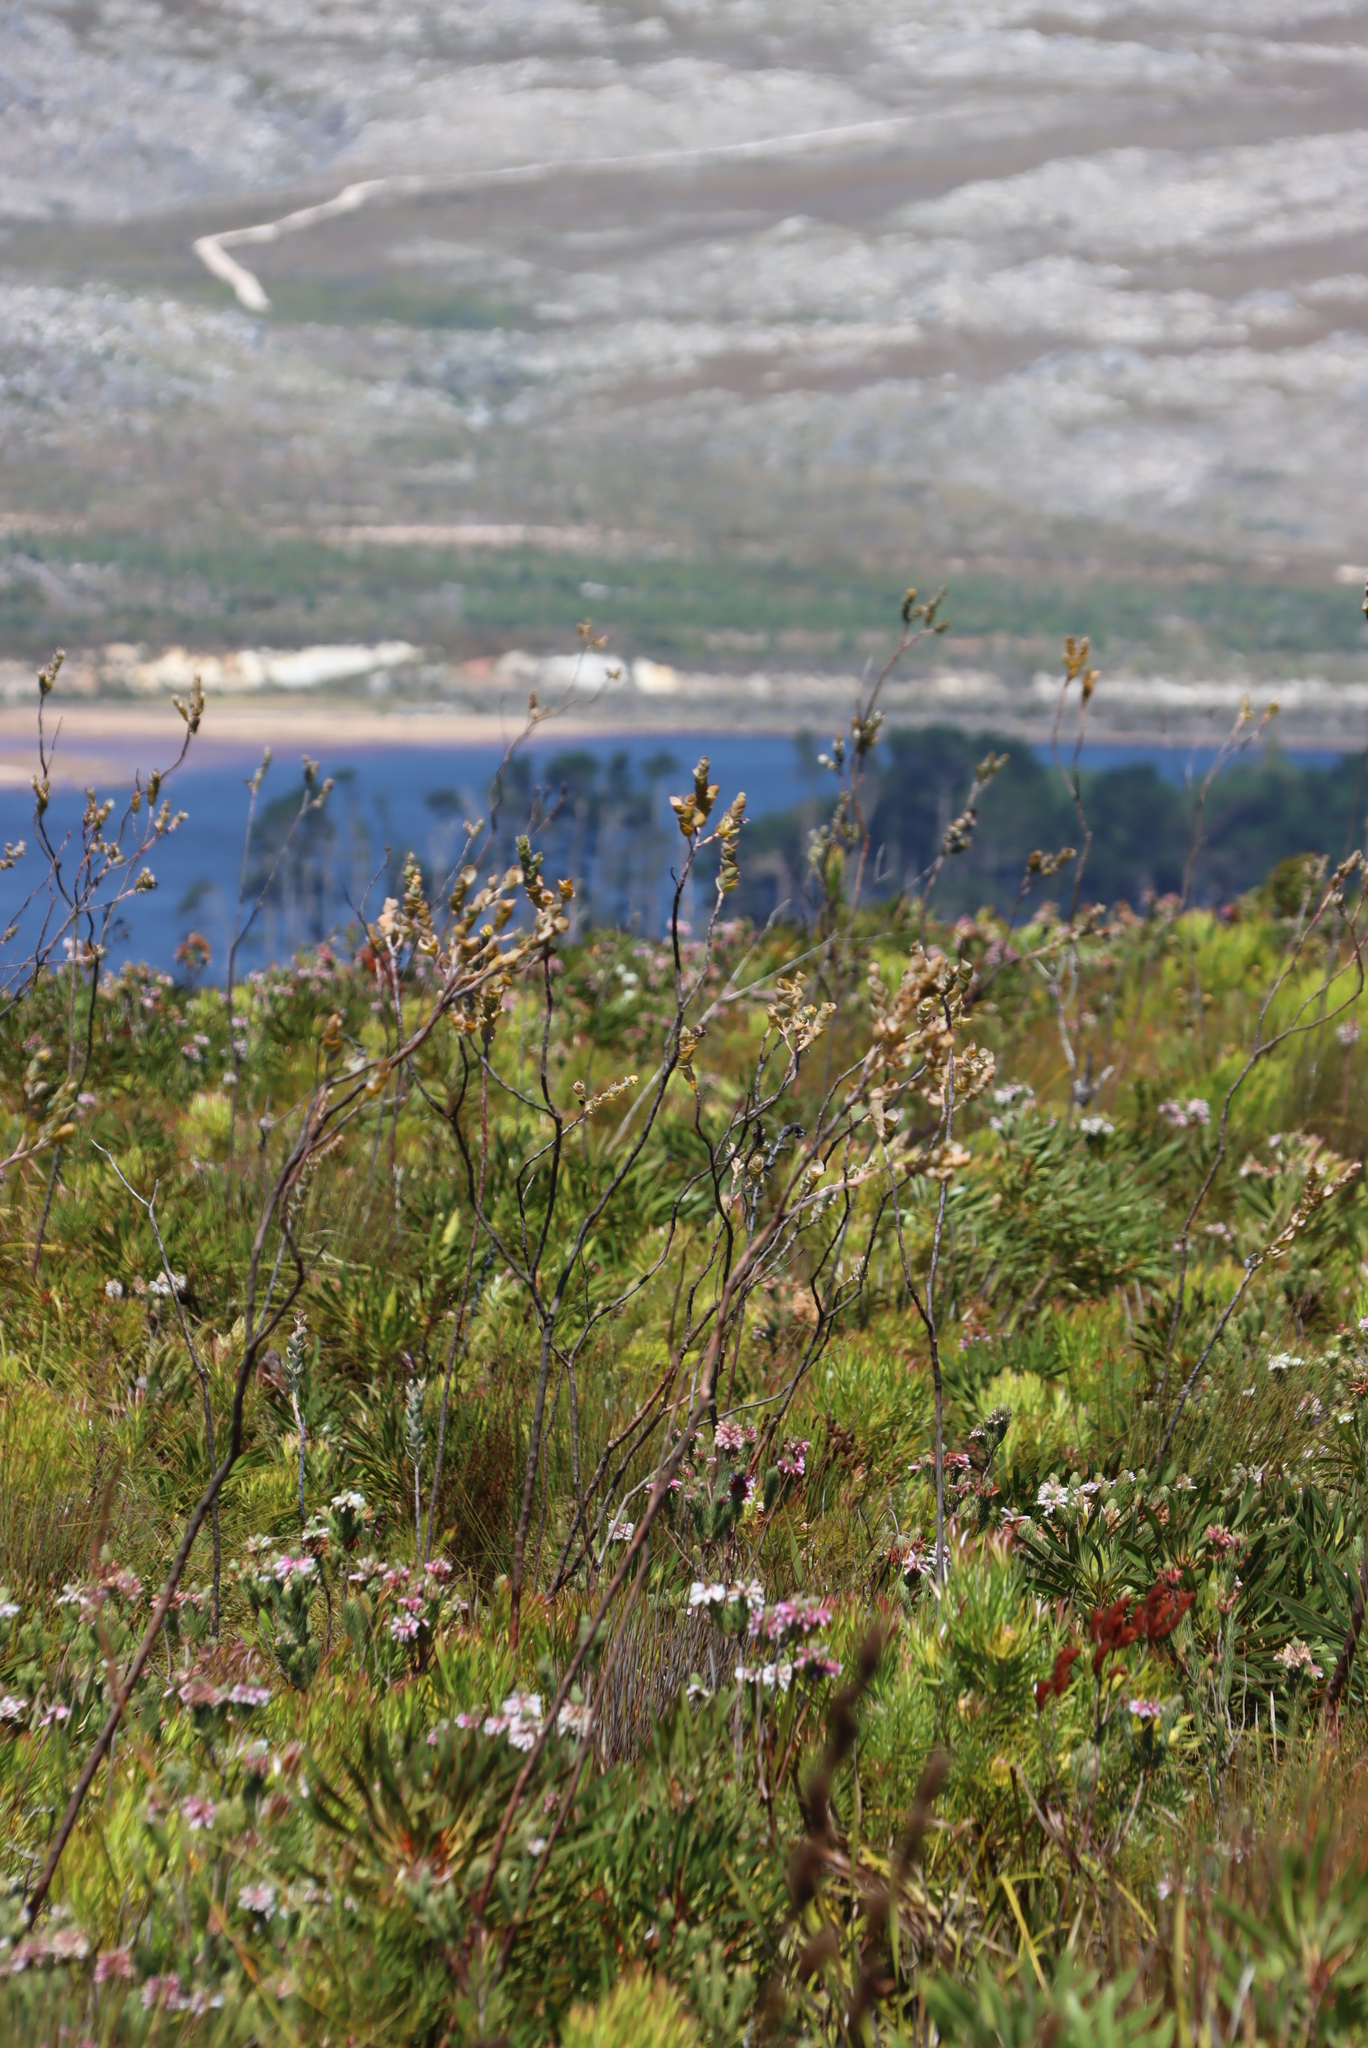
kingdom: Plantae
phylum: Tracheophyta
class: Magnoliopsida
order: Santalales
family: Thesiaceae
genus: Thesium
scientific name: Thesium euphorbioides
